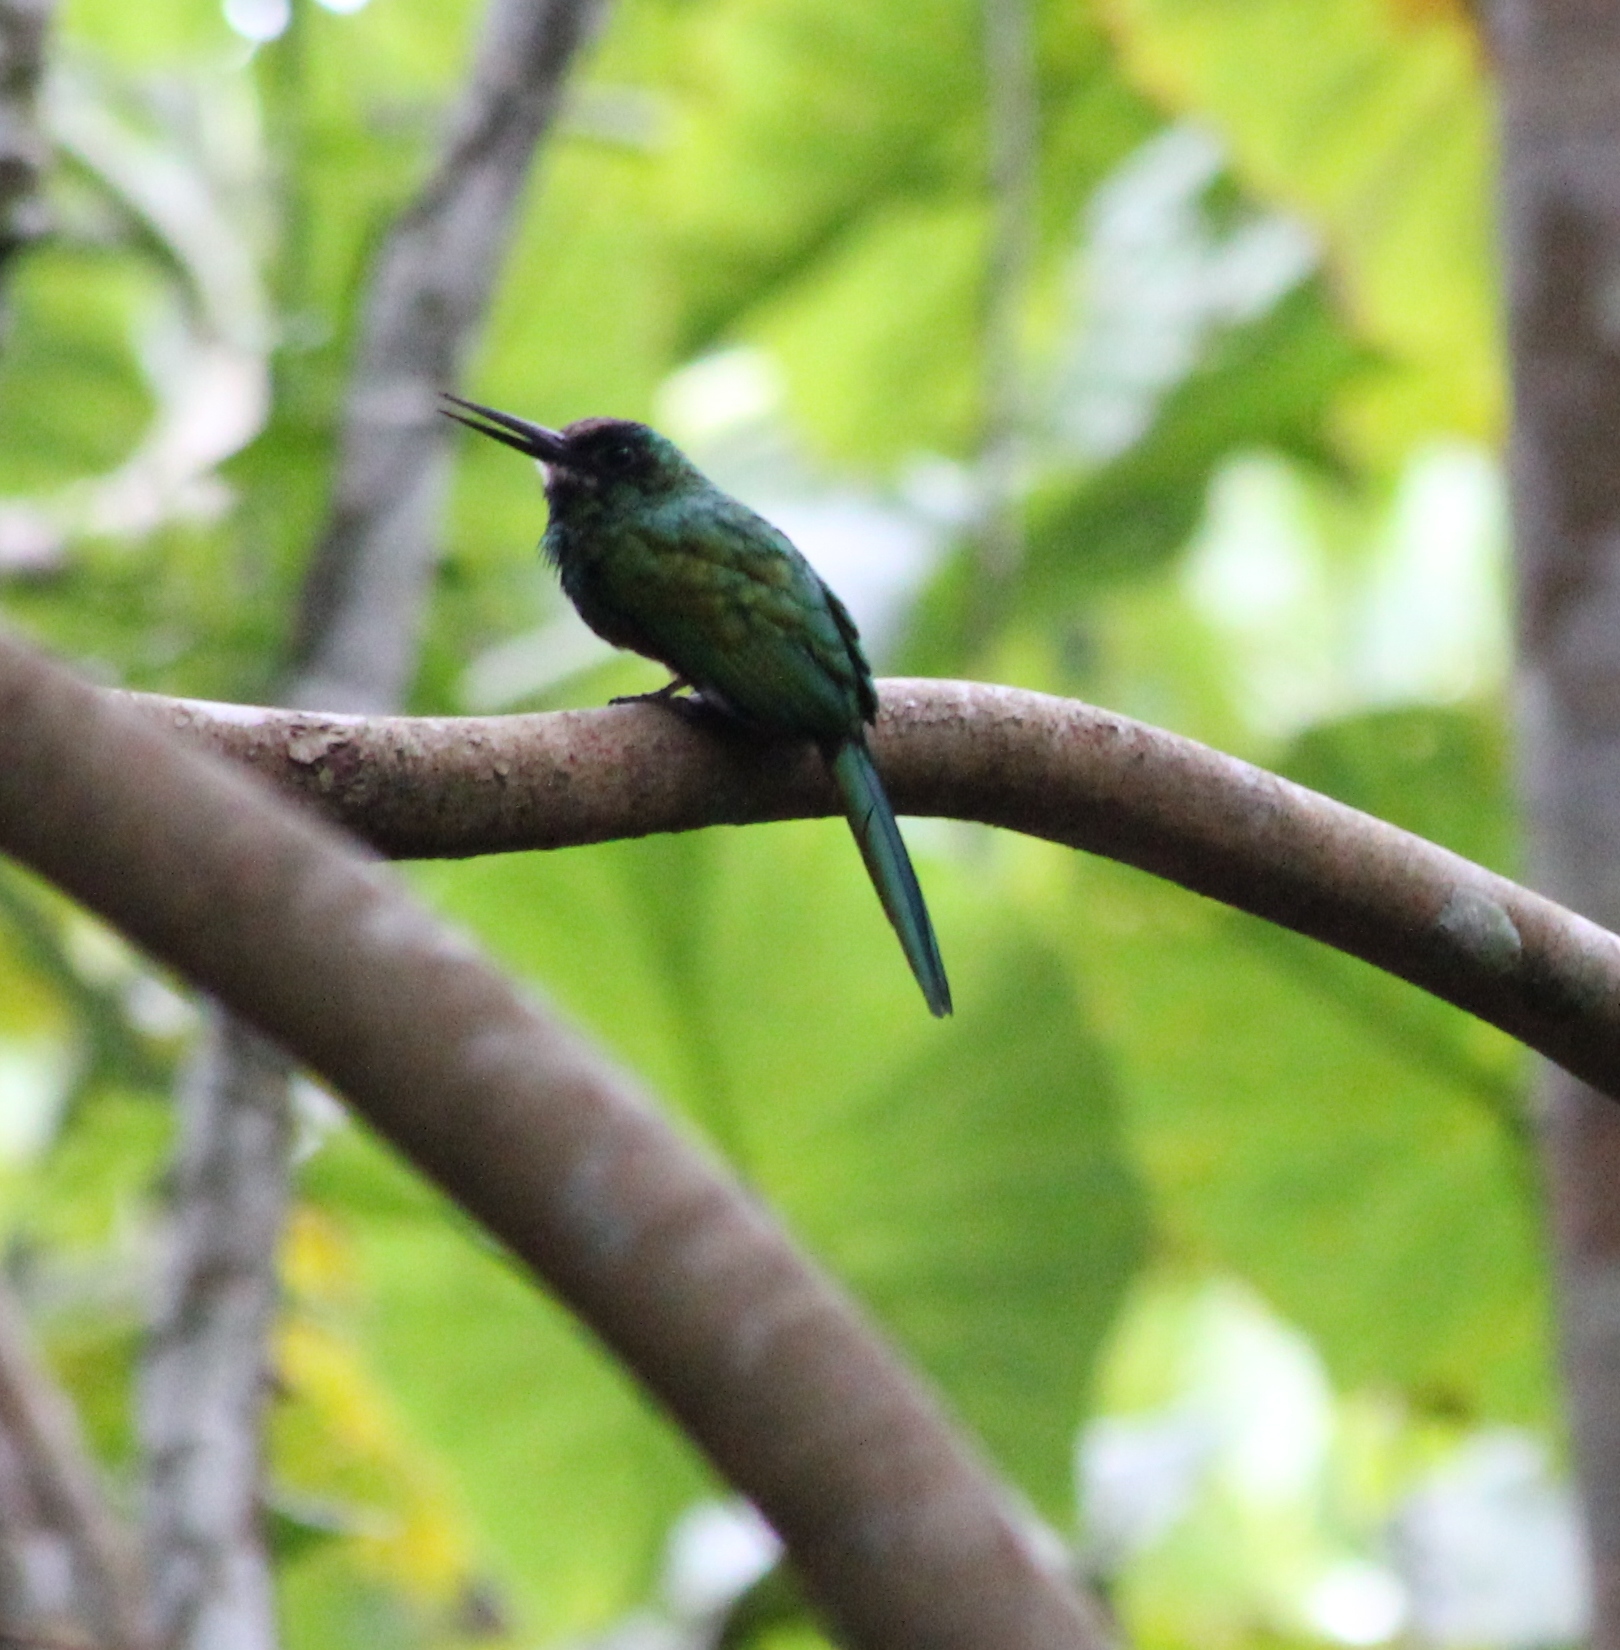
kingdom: Animalia
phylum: Chordata
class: Aves
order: Piciformes
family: Galbulidae
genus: Galbula
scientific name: Galbula tombacea
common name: White-chinned jacamar
